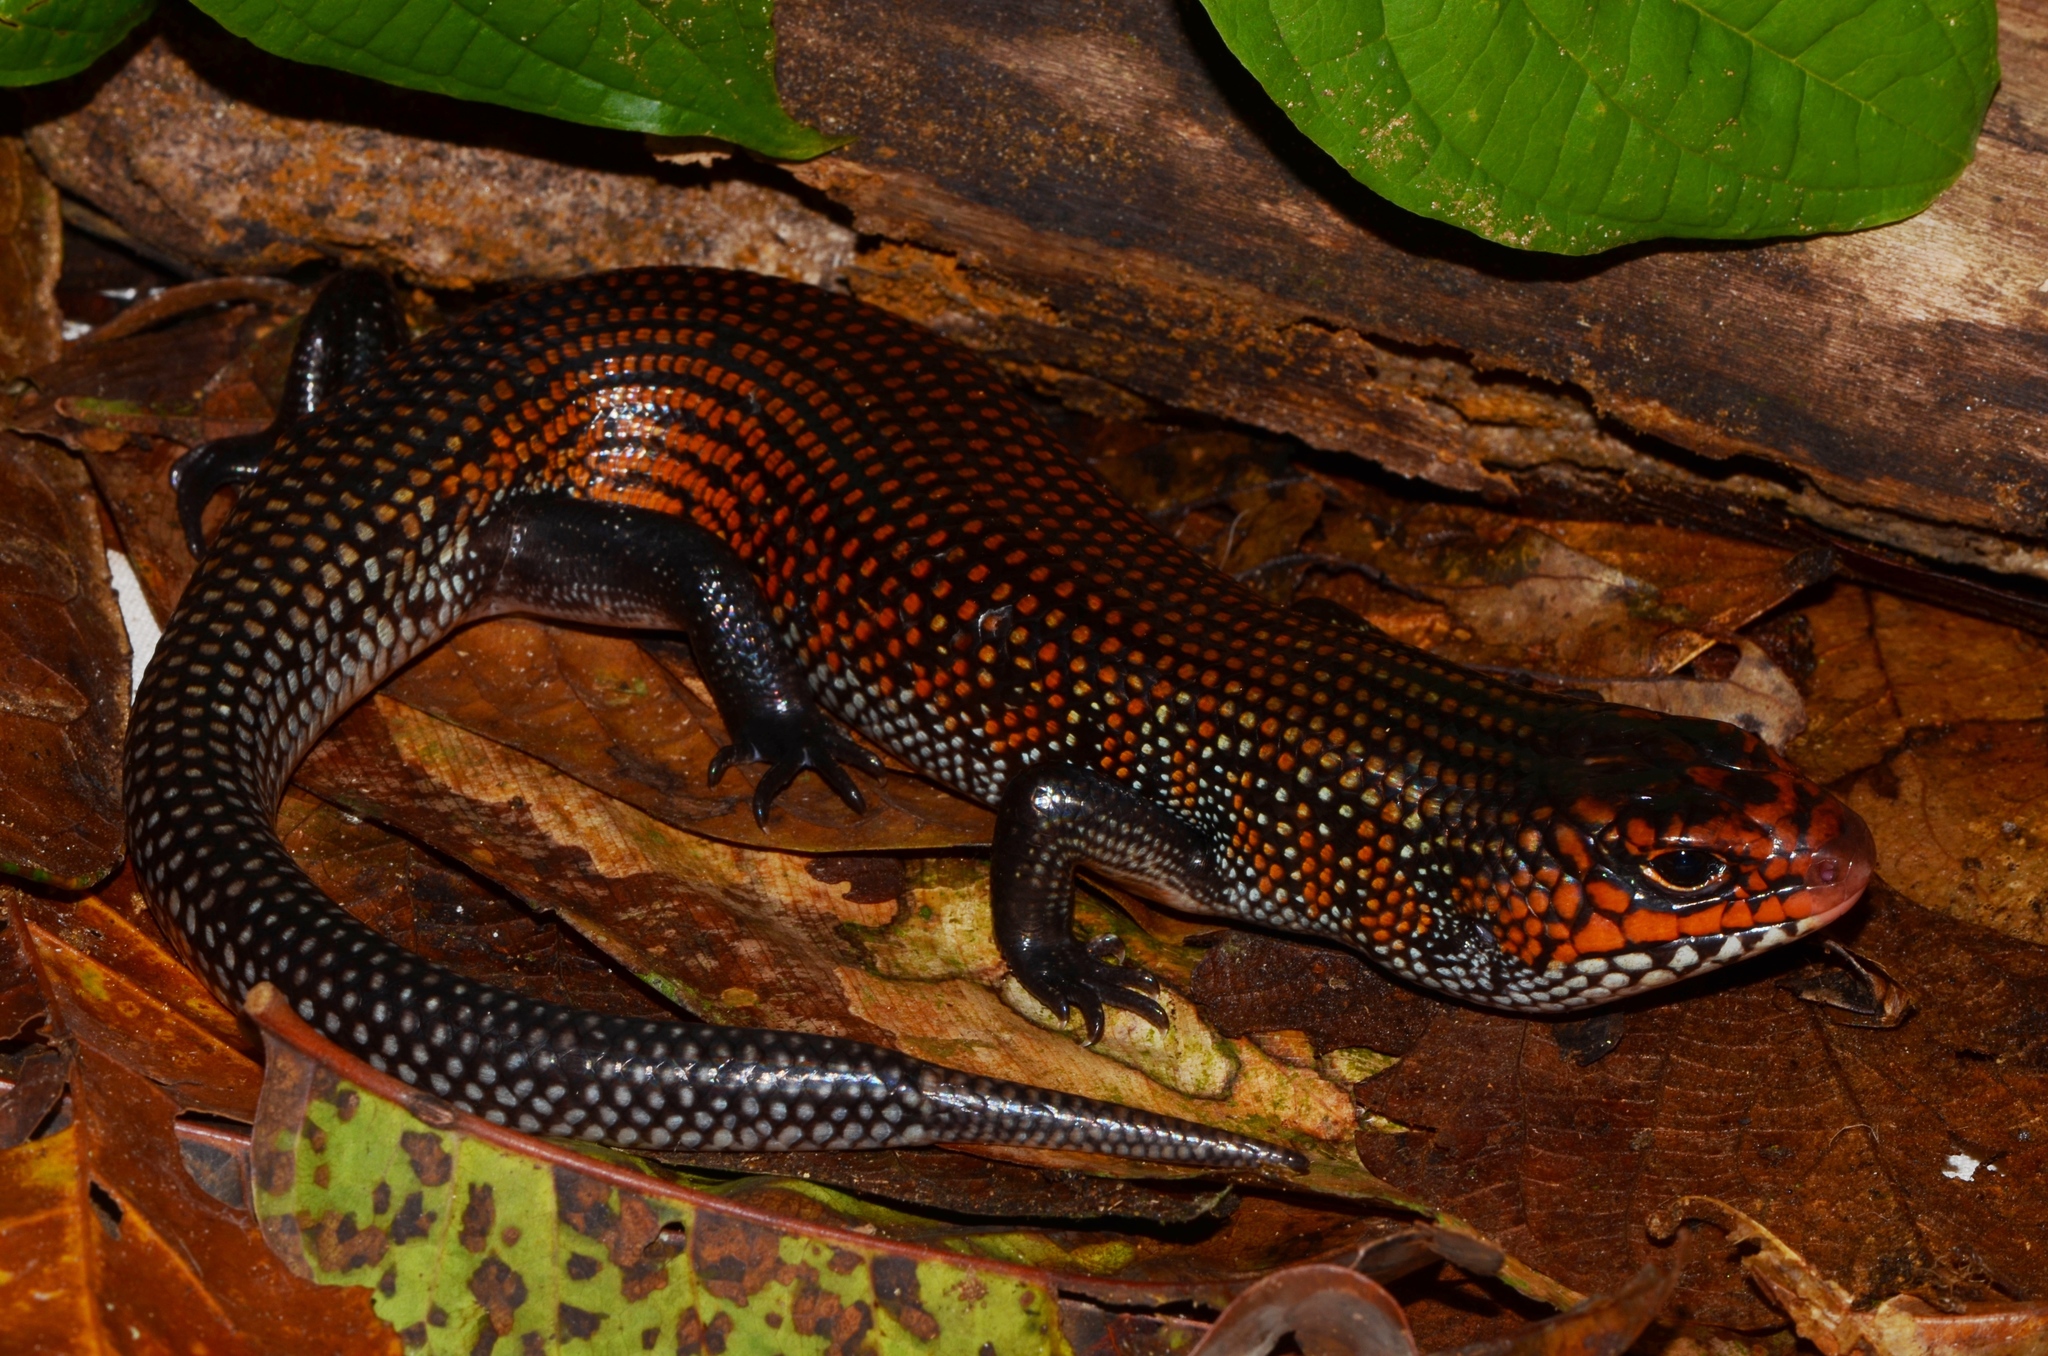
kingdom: Animalia
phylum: Chordata
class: Squamata
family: Scincidae
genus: Mochlus
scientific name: Mochlus striatus
